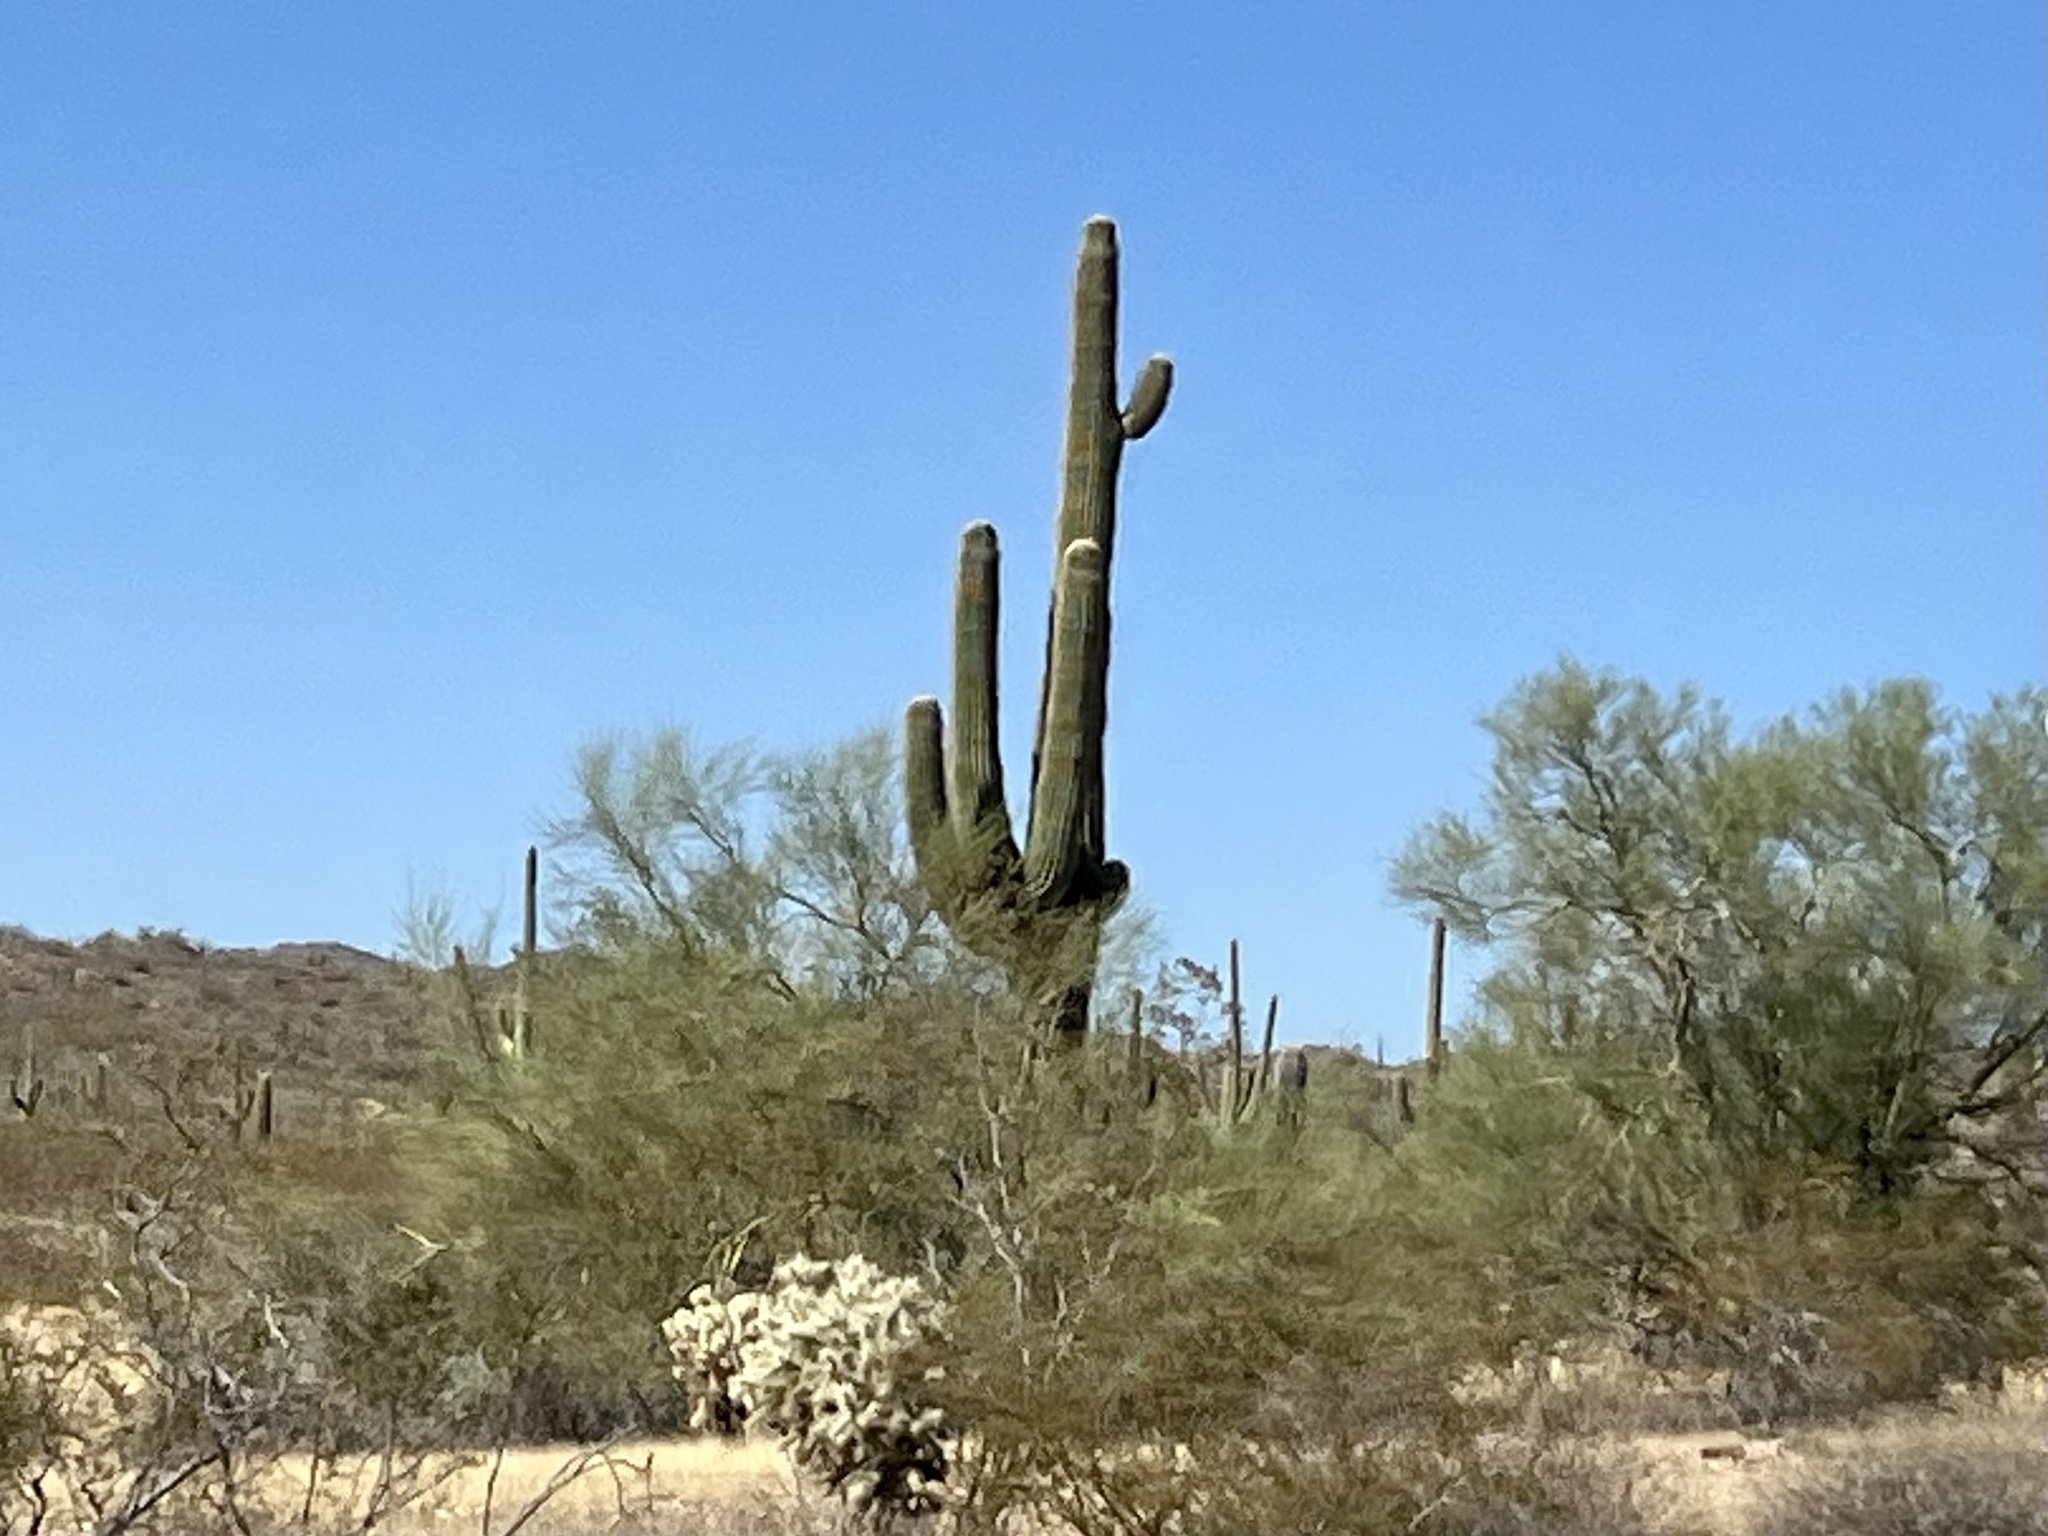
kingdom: Plantae
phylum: Tracheophyta
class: Magnoliopsida
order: Caryophyllales
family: Cactaceae
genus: Carnegiea
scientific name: Carnegiea gigantea
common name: Saguaro
